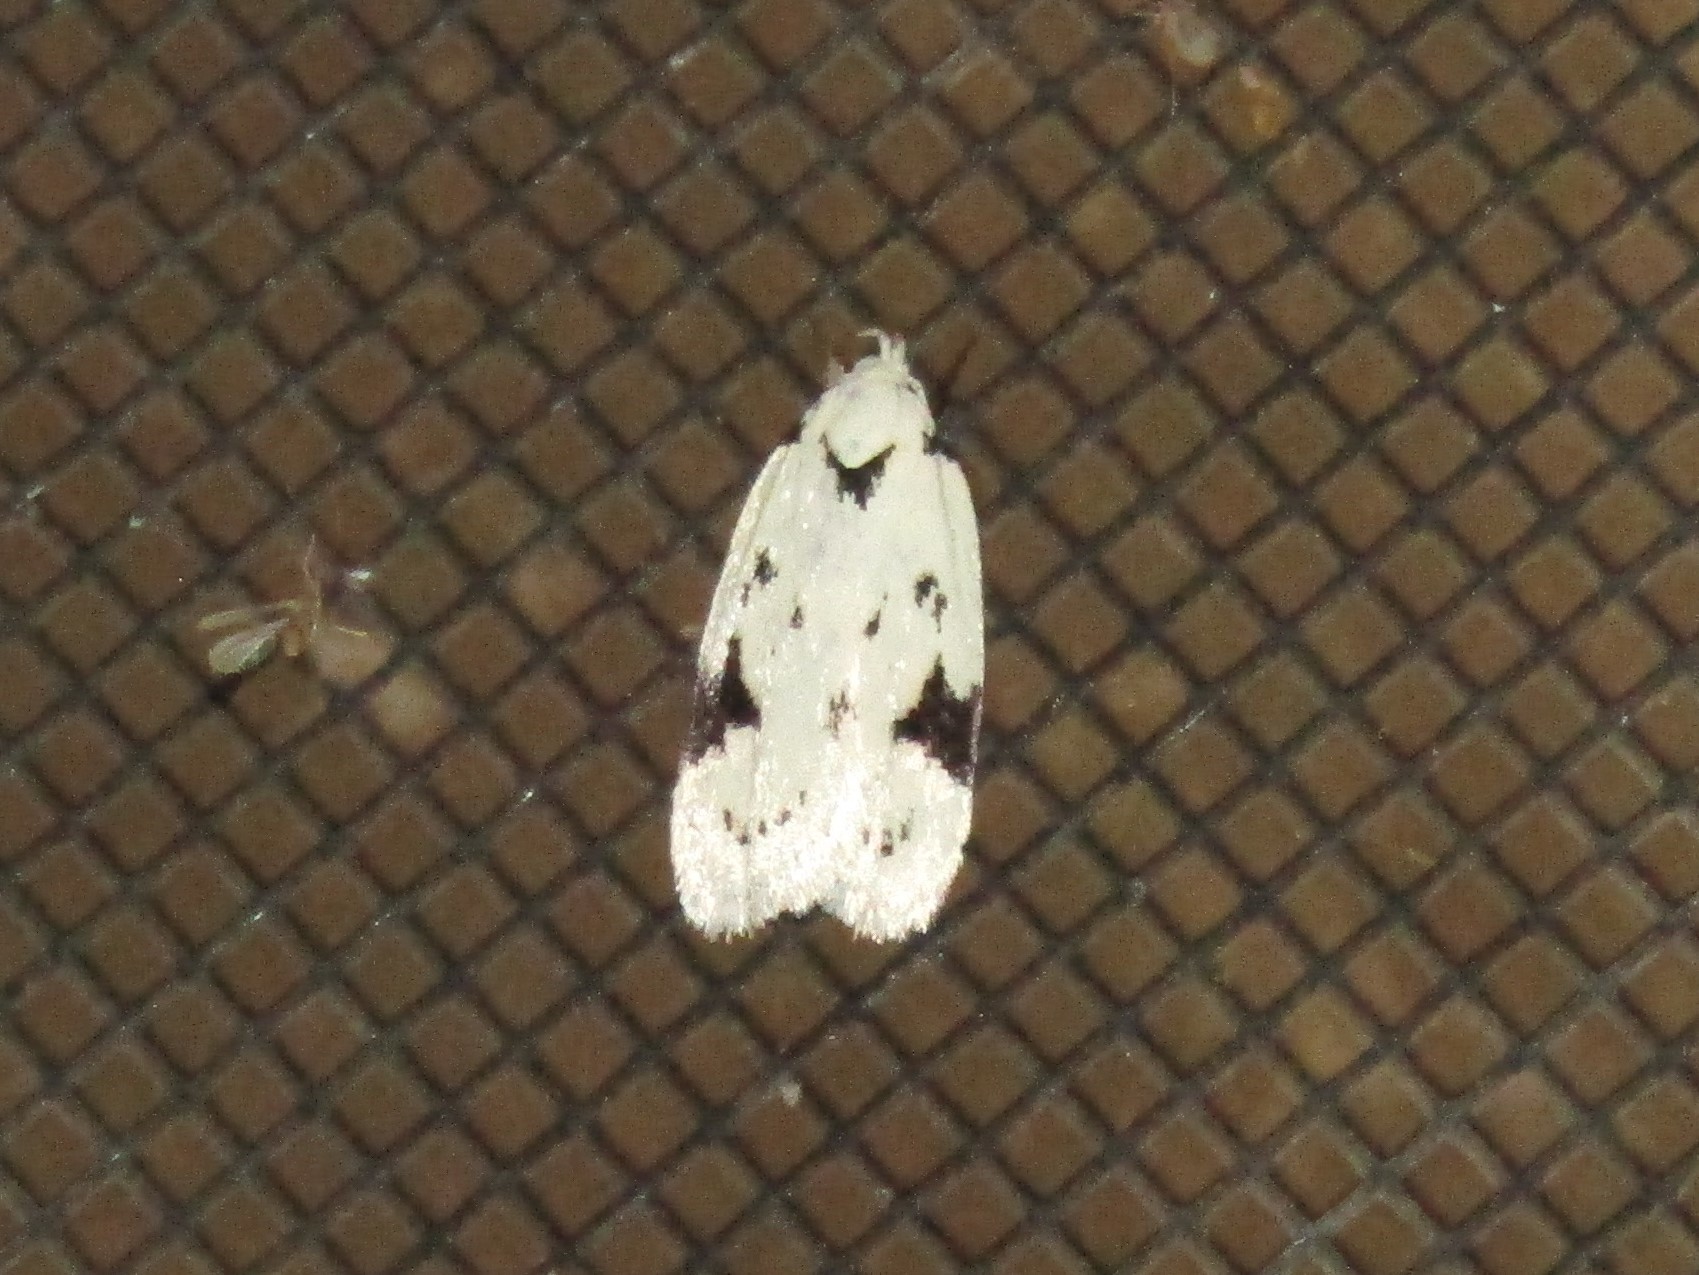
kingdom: Animalia
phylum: Arthropoda
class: Insecta
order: Lepidoptera
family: Oecophoridae
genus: Inga
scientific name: Inga sparsiciliella
